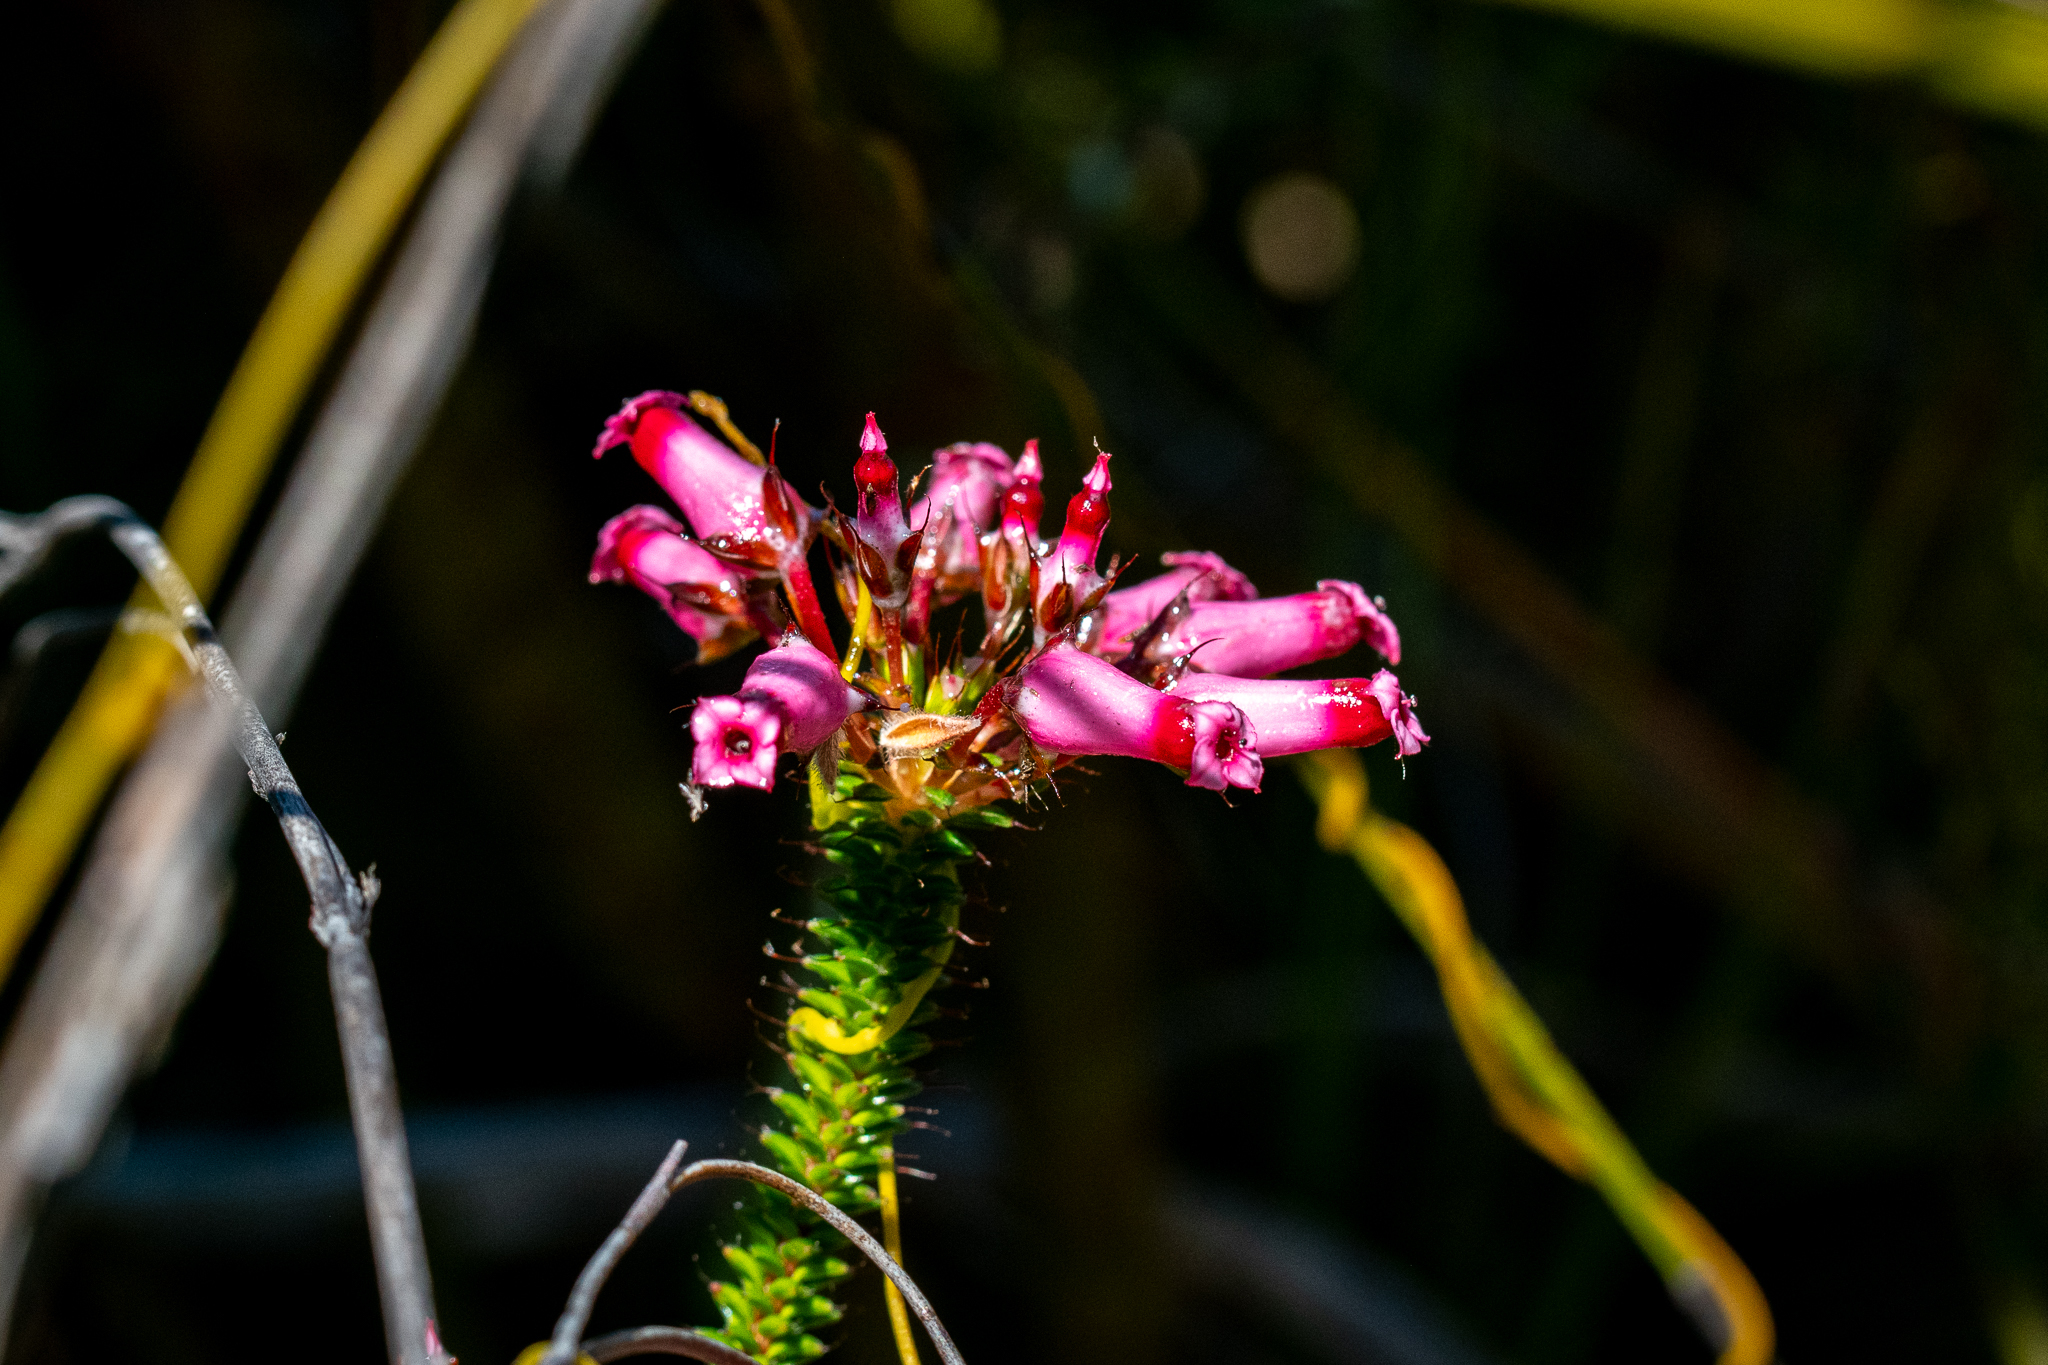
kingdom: Plantae
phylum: Tracheophyta
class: Magnoliopsida
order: Ericales
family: Ericaceae
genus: Erica
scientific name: Erica retorta
